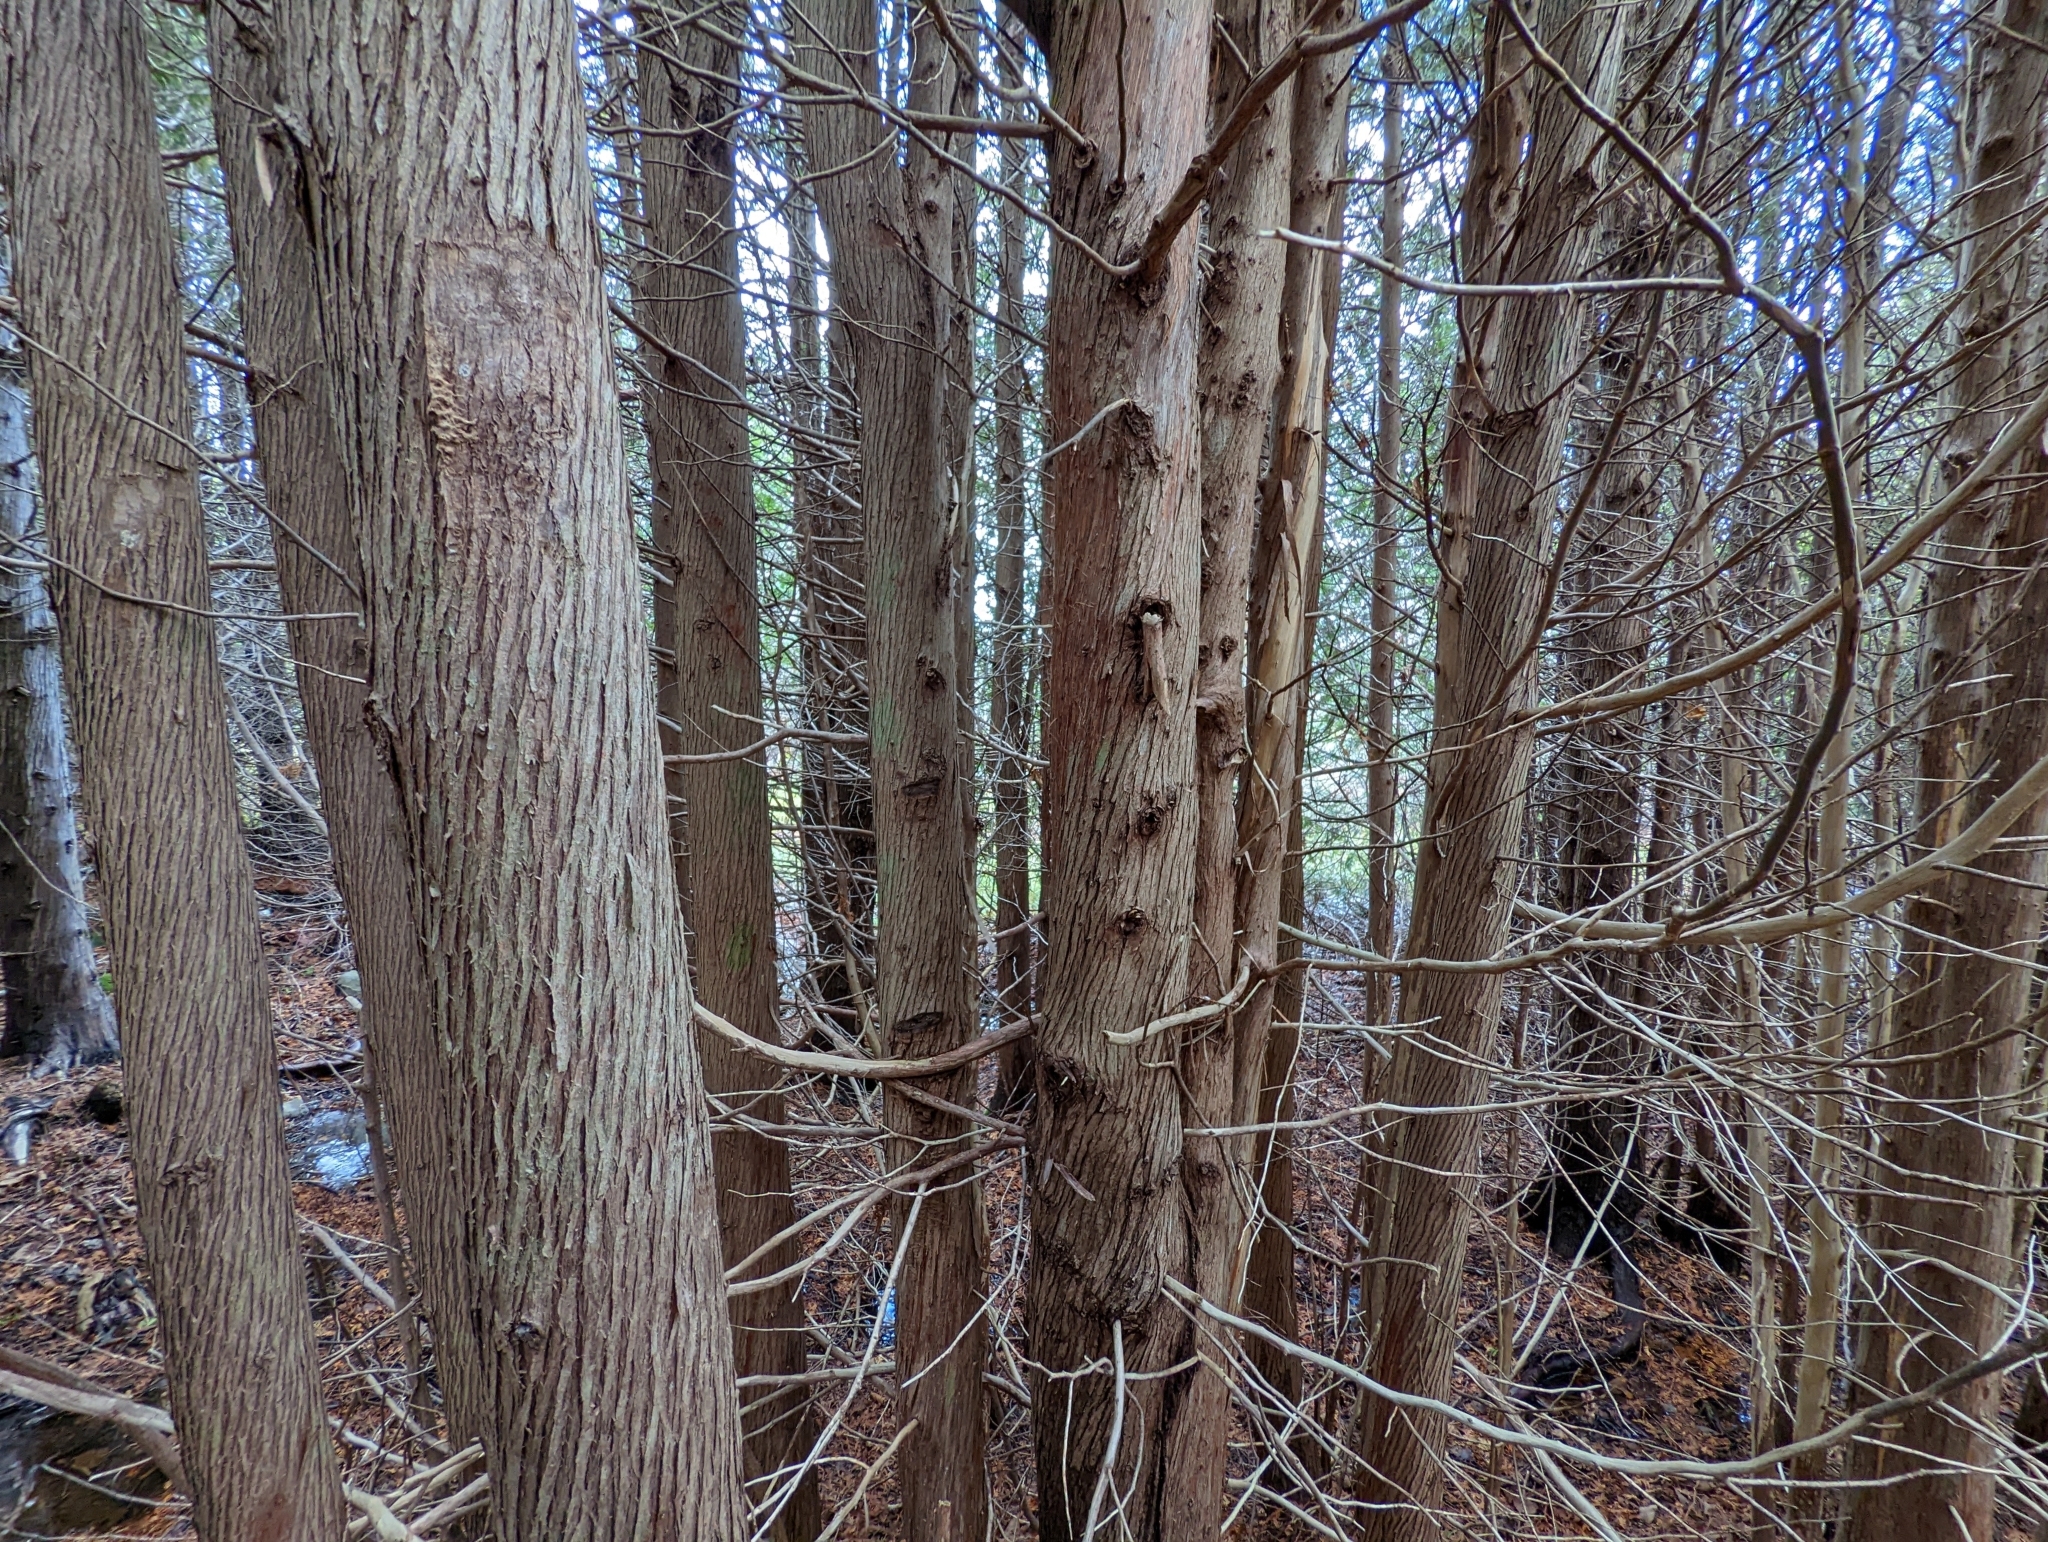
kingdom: Plantae
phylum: Tracheophyta
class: Pinopsida
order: Pinales
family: Cupressaceae
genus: Thuja
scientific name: Thuja occidentalis
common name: Northern white-cedar
